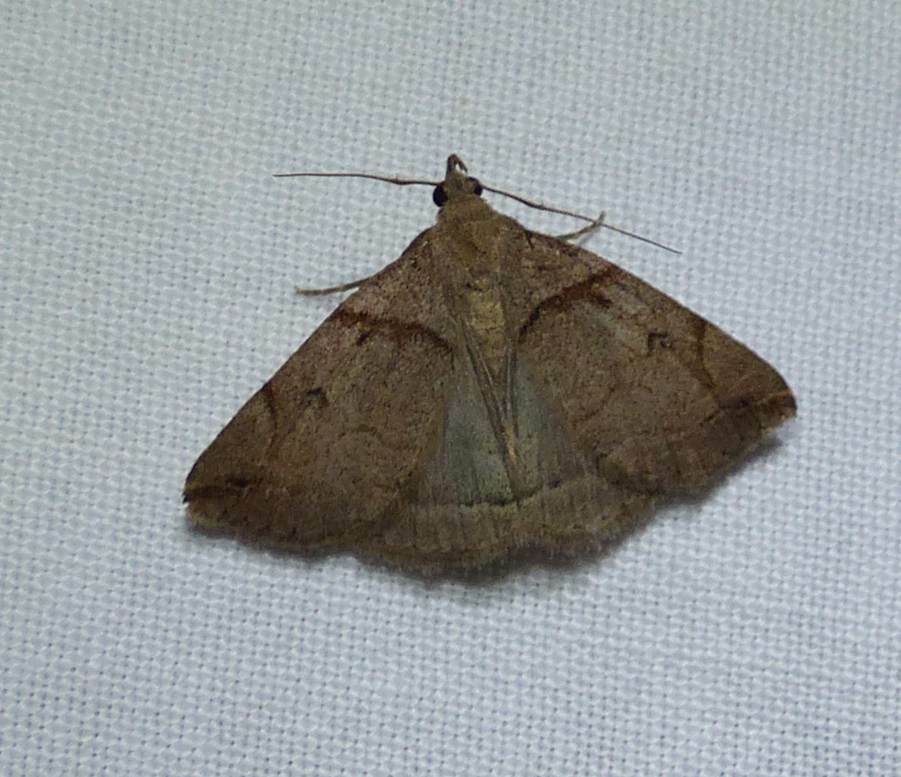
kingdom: Animalia
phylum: Arthropoda
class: Insecta
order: Lepidoptera
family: Erebidae
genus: Zanclognatha
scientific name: Zanclognatha laevigata
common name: Variable fan-foot
